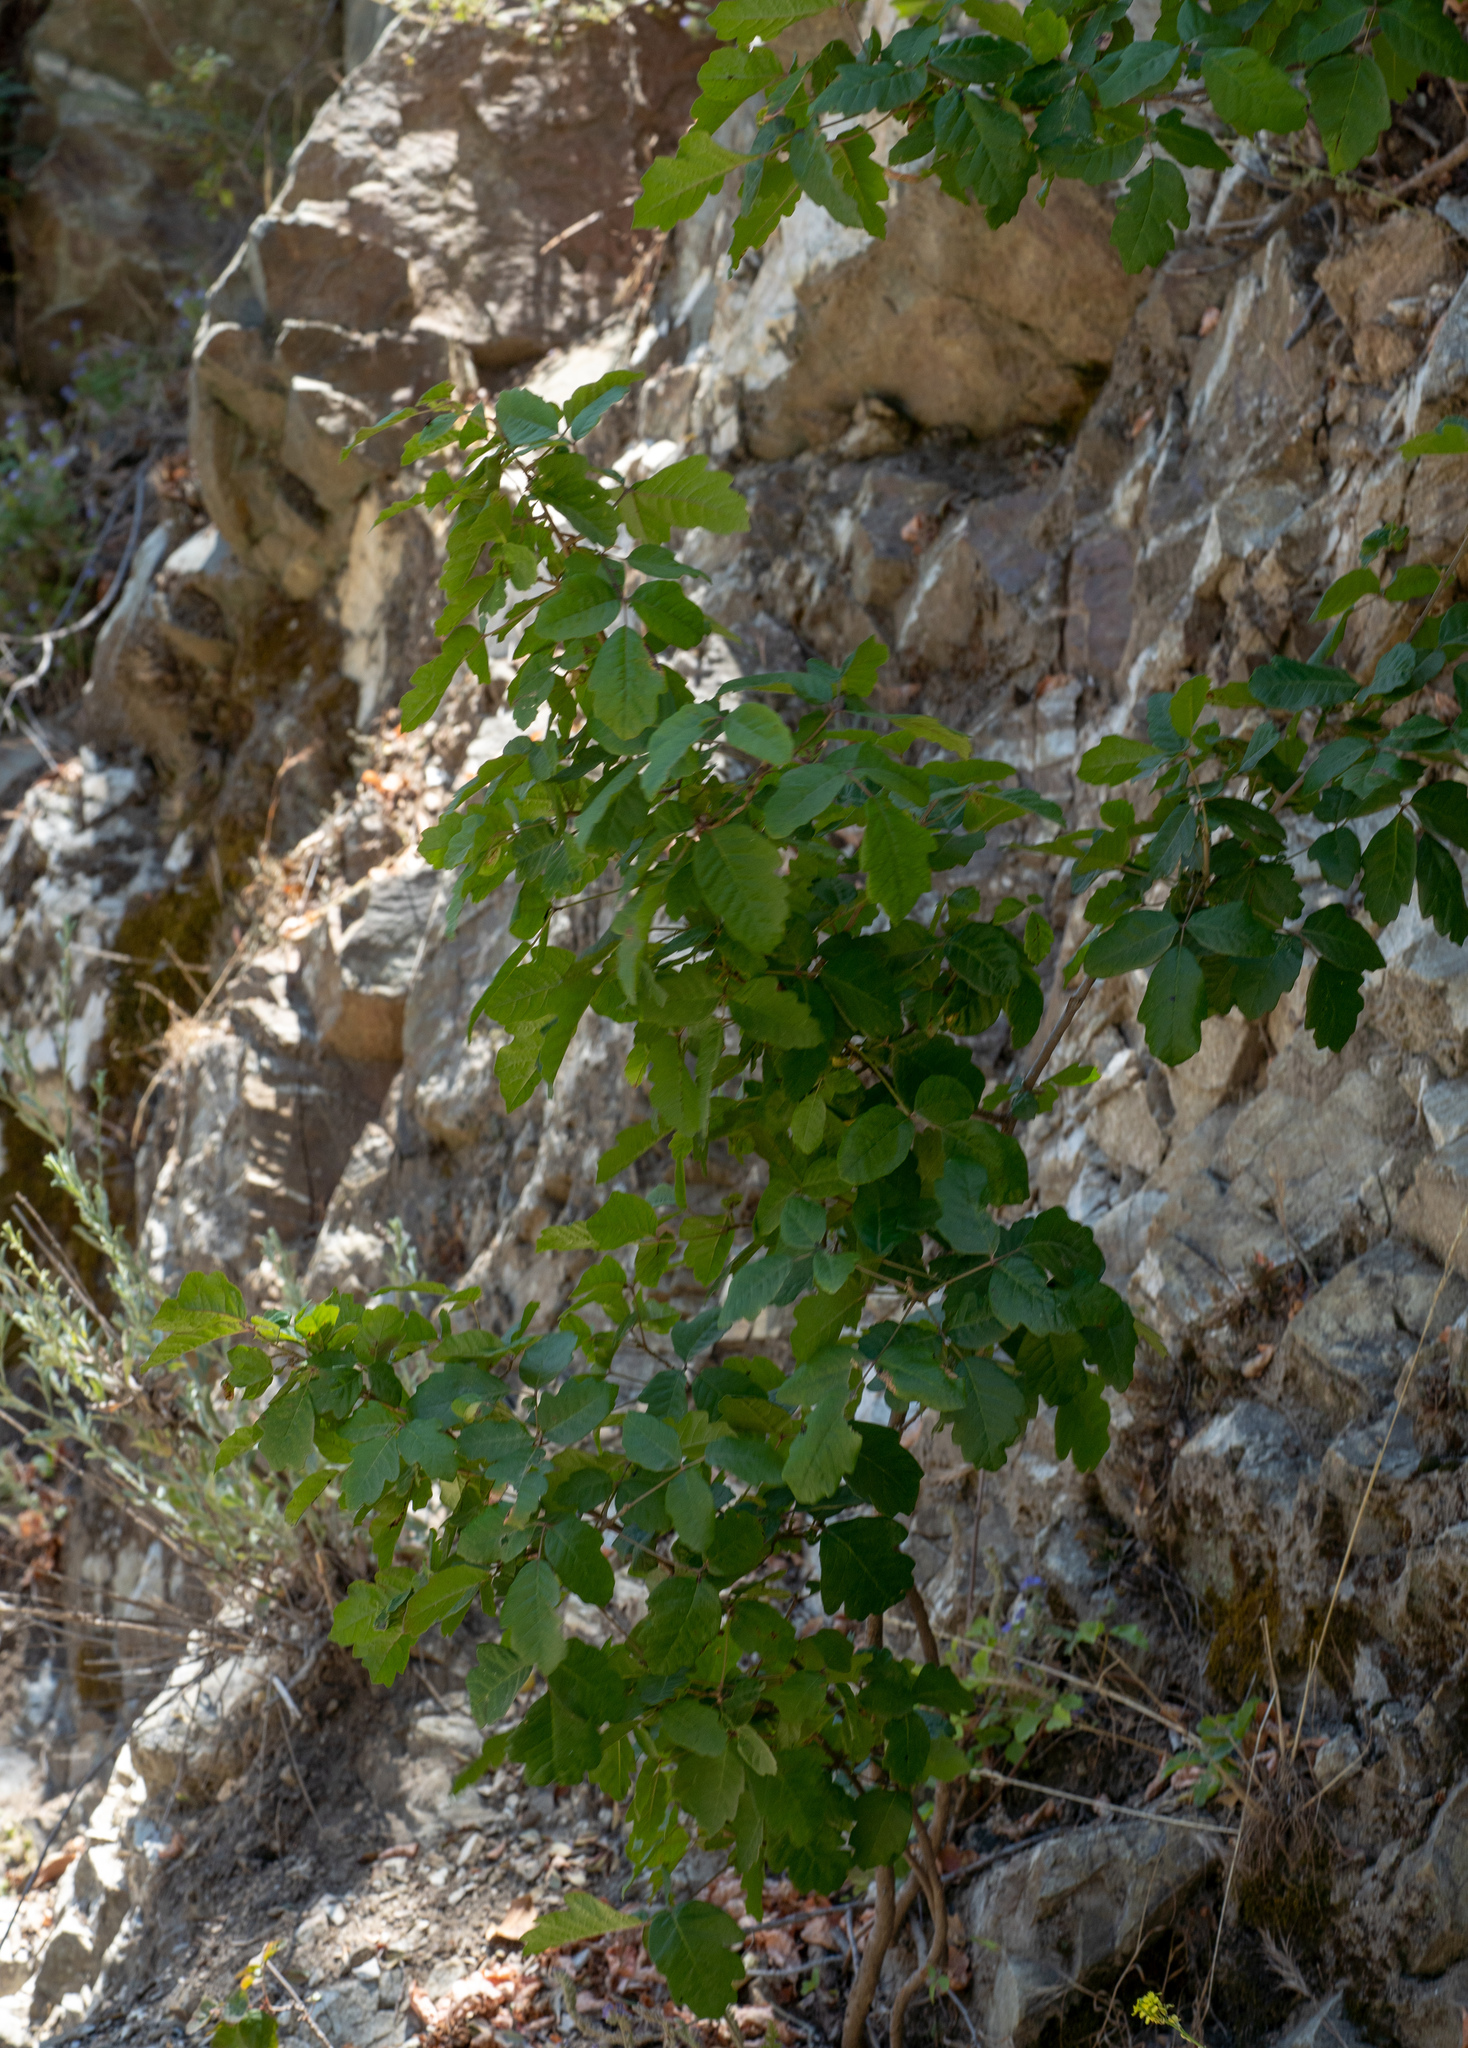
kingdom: Plantae
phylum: Tracheophyta
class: Magnoliopsida
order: Sapindales
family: Anacardiaceae
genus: Toxicodendron
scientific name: Toxicodendron diversilobum
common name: Pacific poison-oak
